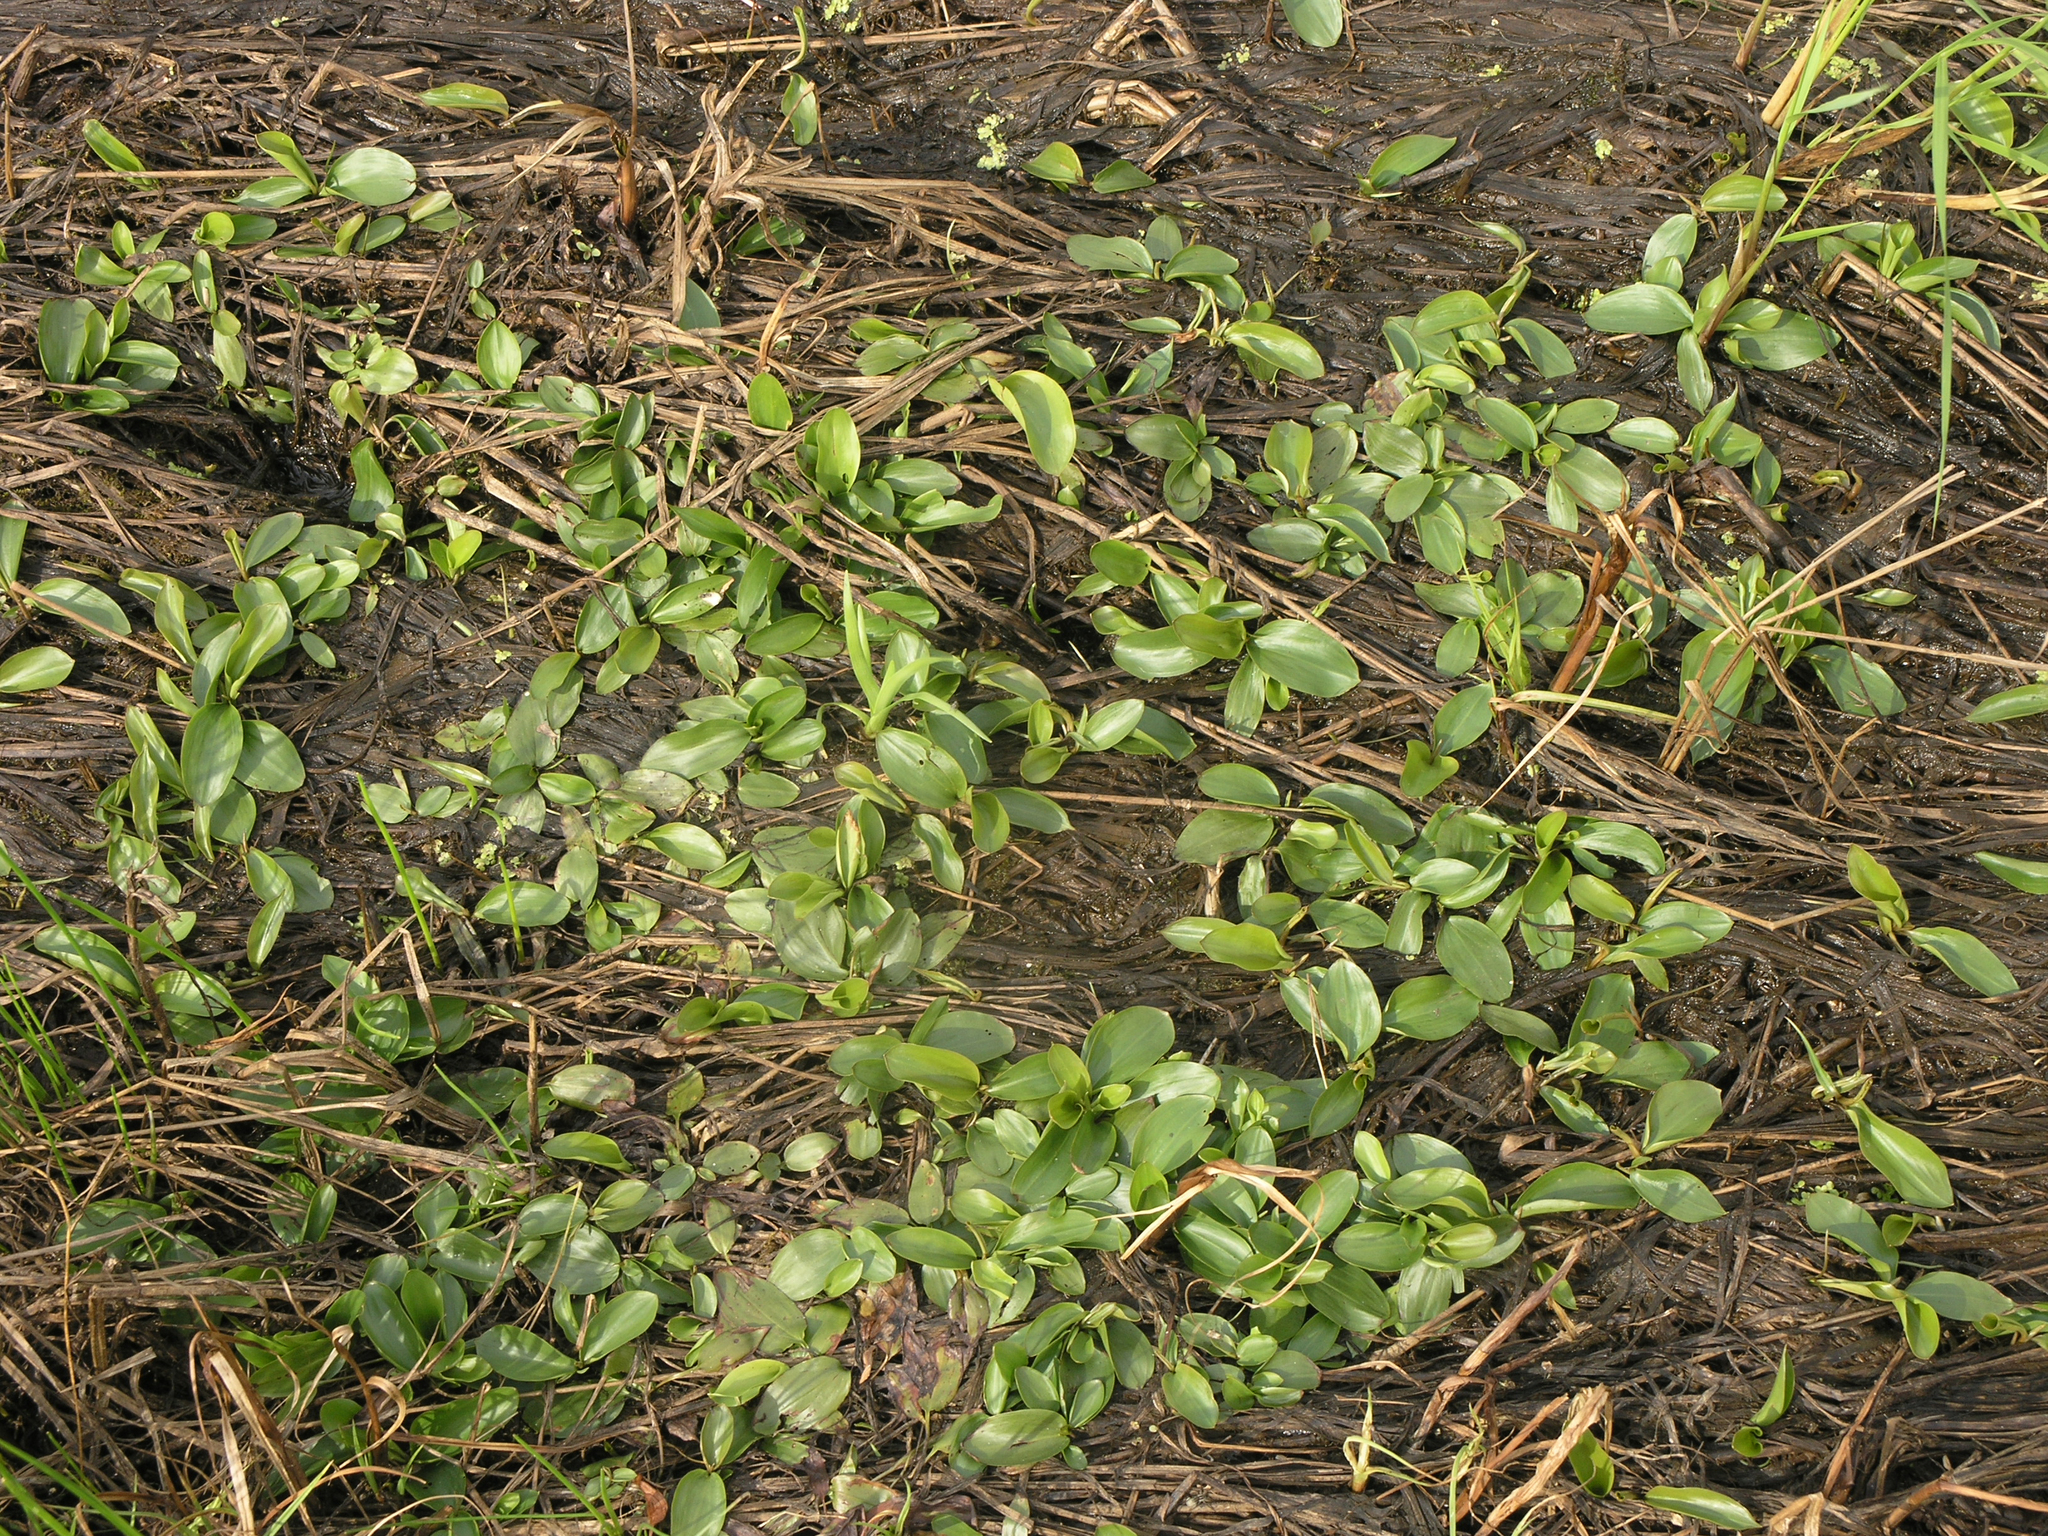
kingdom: Plantae
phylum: Tracheophyta
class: Liliopsida
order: Alismatales
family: Potamogetonaceae
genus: Potamogeton
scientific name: Potamogeton gramineus
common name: Various-leaved pondweed
